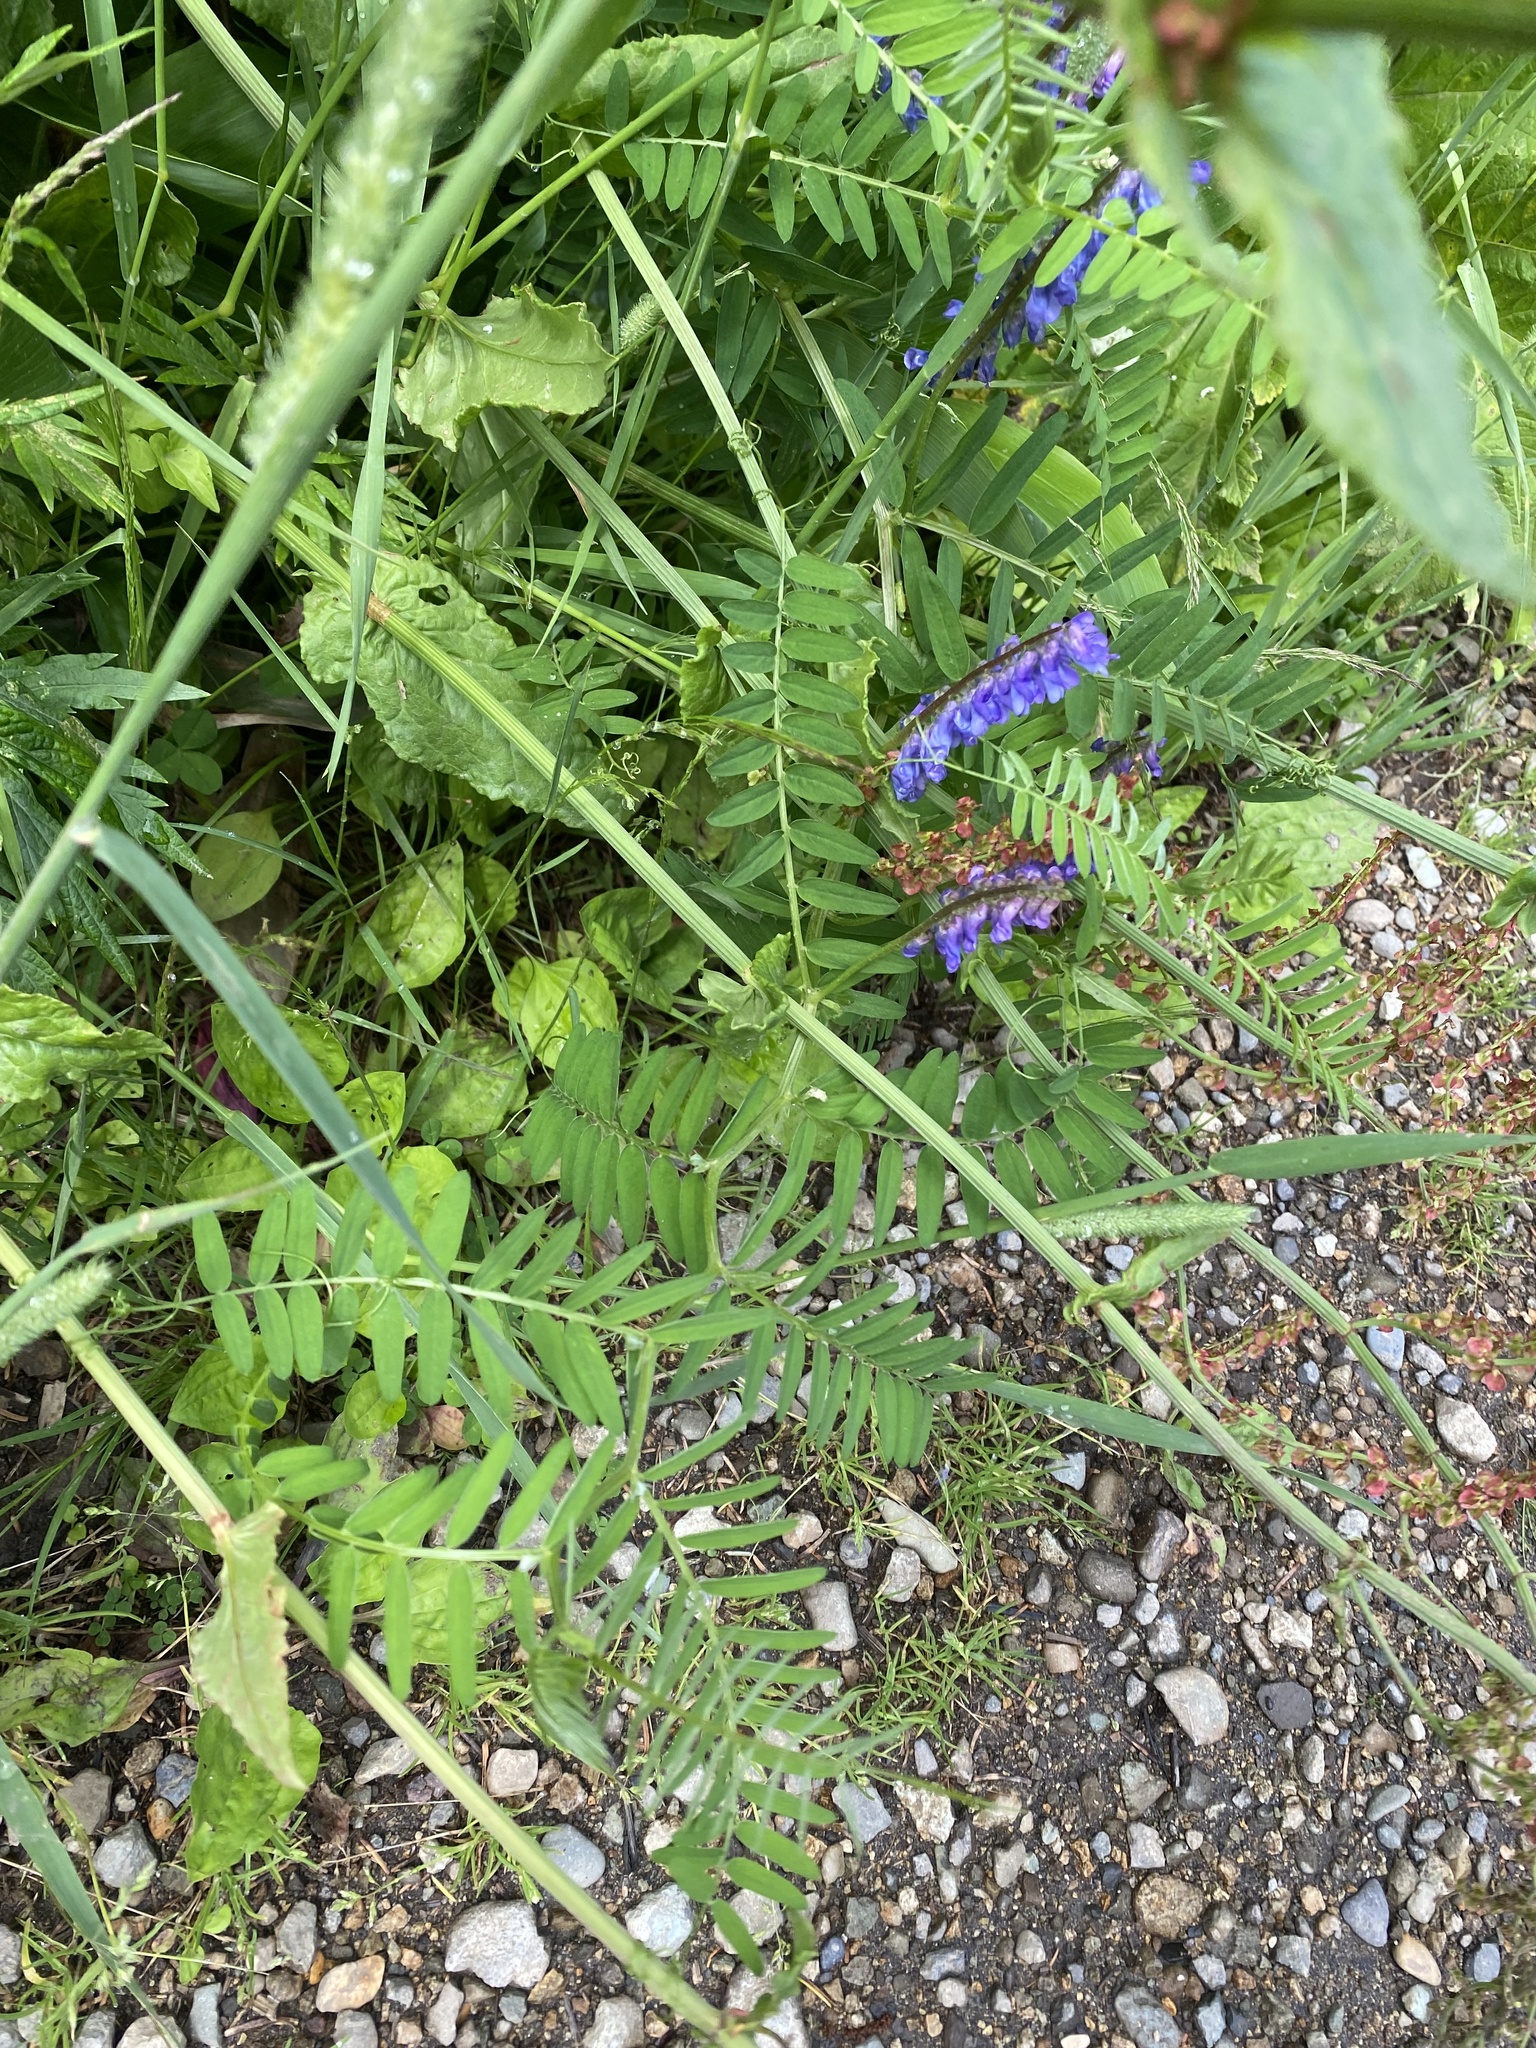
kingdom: Plantae
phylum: Tracheophyta
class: Magnoliopsida
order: Fabales
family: Fabaceae
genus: Vicia
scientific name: Vicia cracca
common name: Bird vetch
